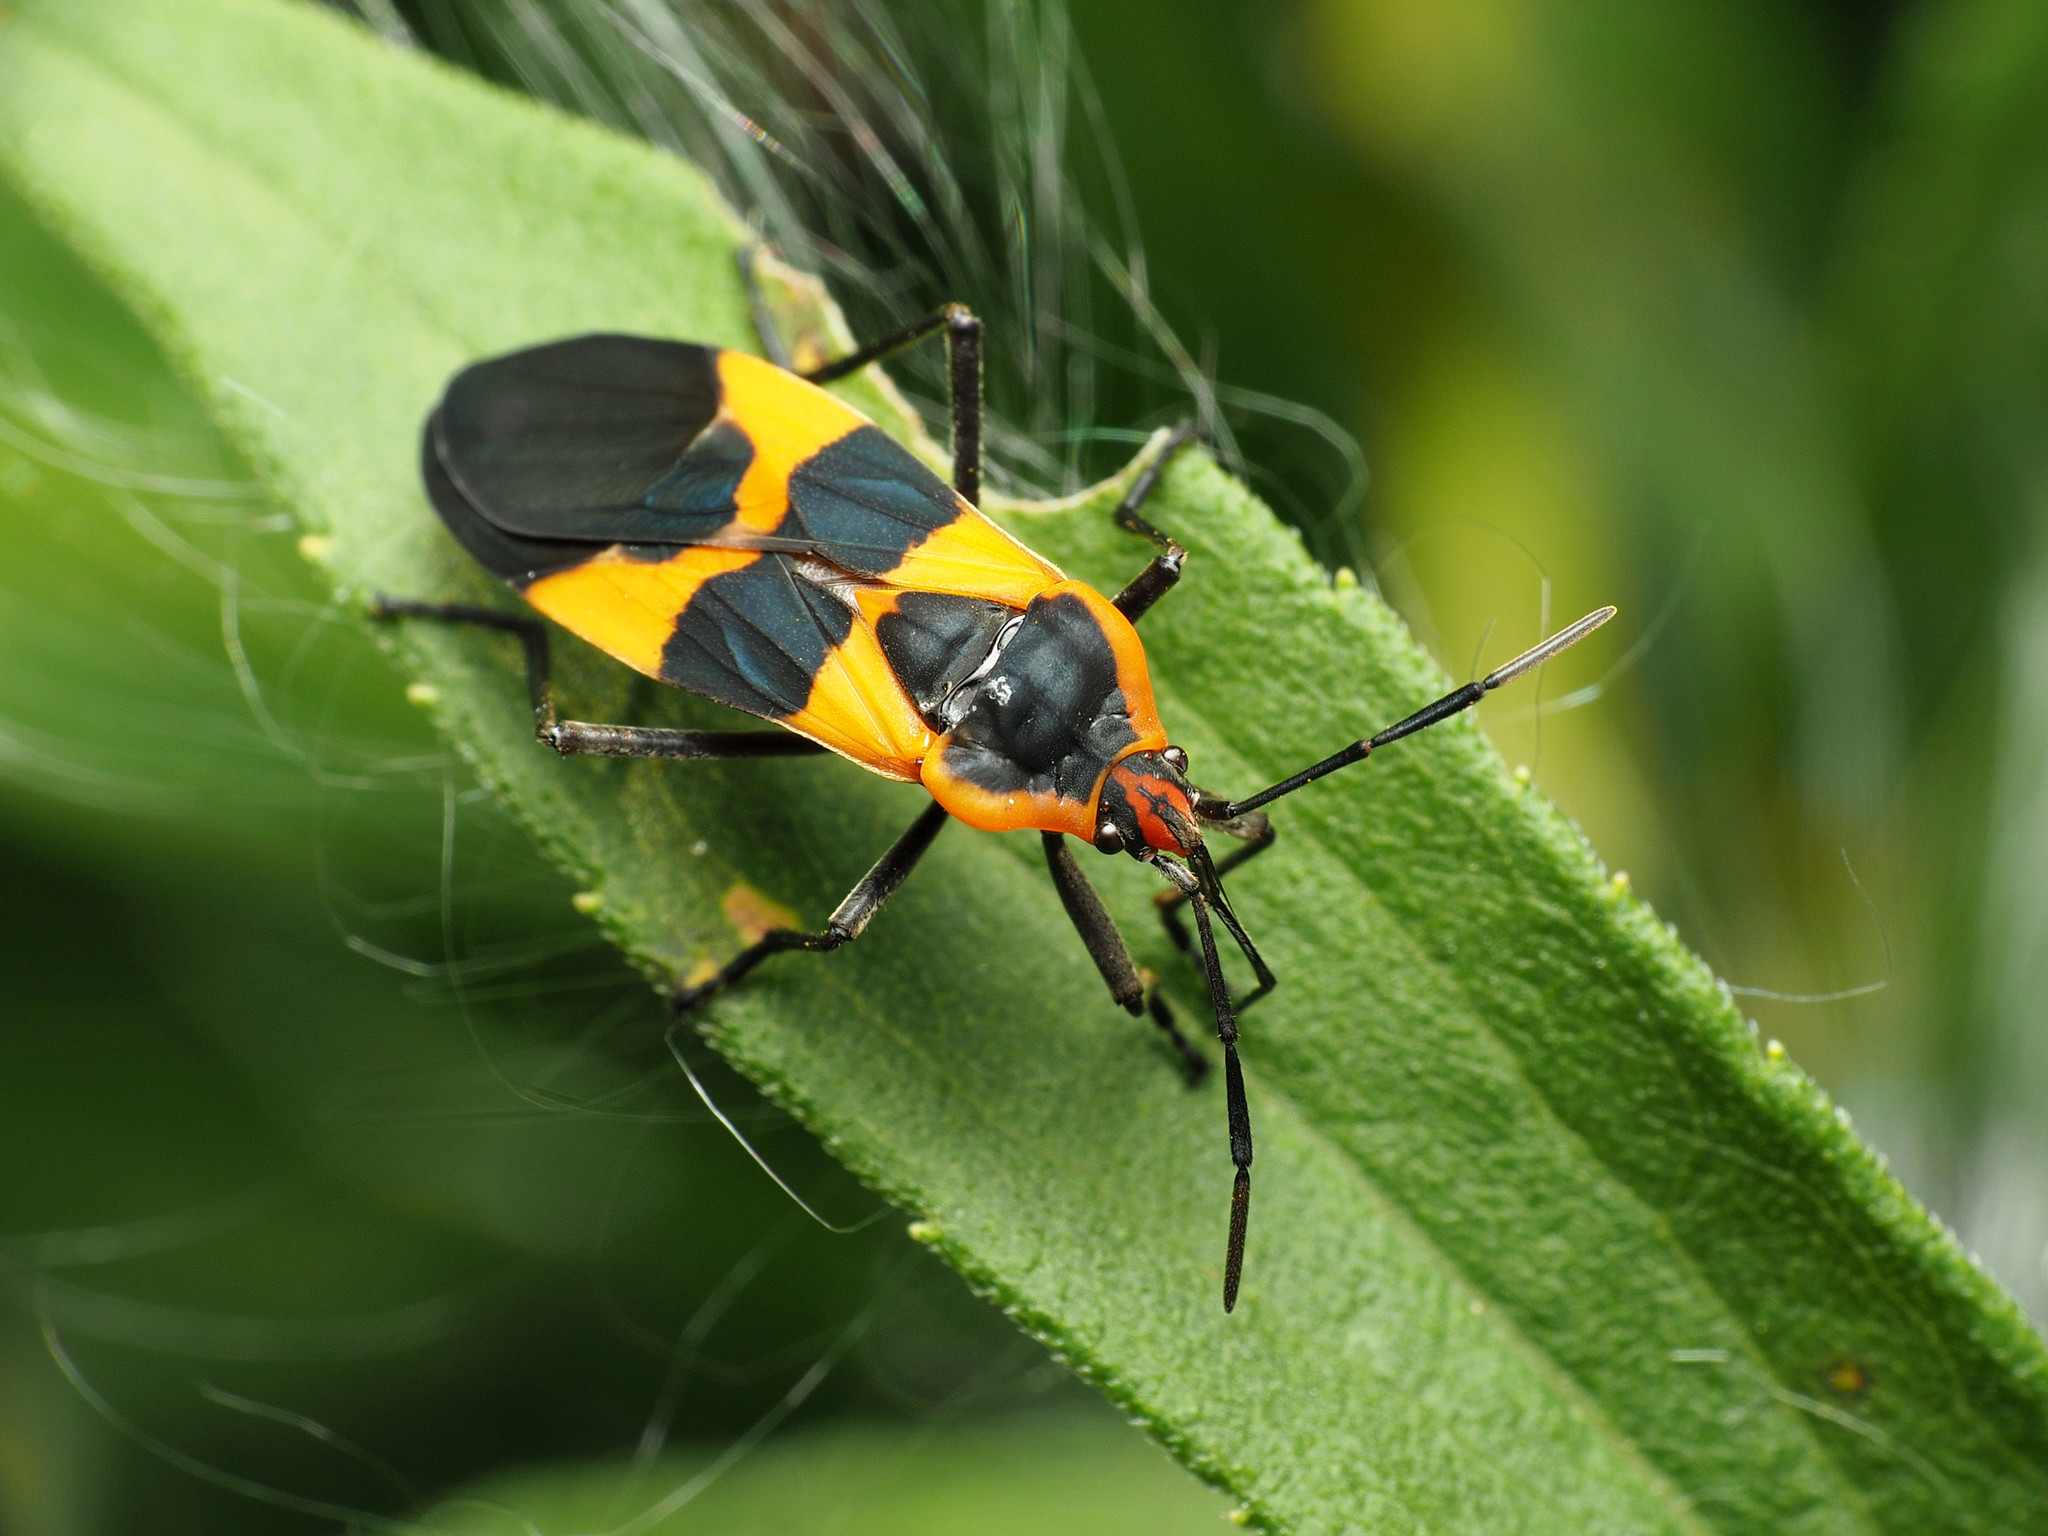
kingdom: Animalia
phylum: Arthropoda
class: Insecta
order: Hemiptera
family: Lygaeidae
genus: Oncopeltus
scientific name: Oncopeltus fasciatus
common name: Large milkweed bug
